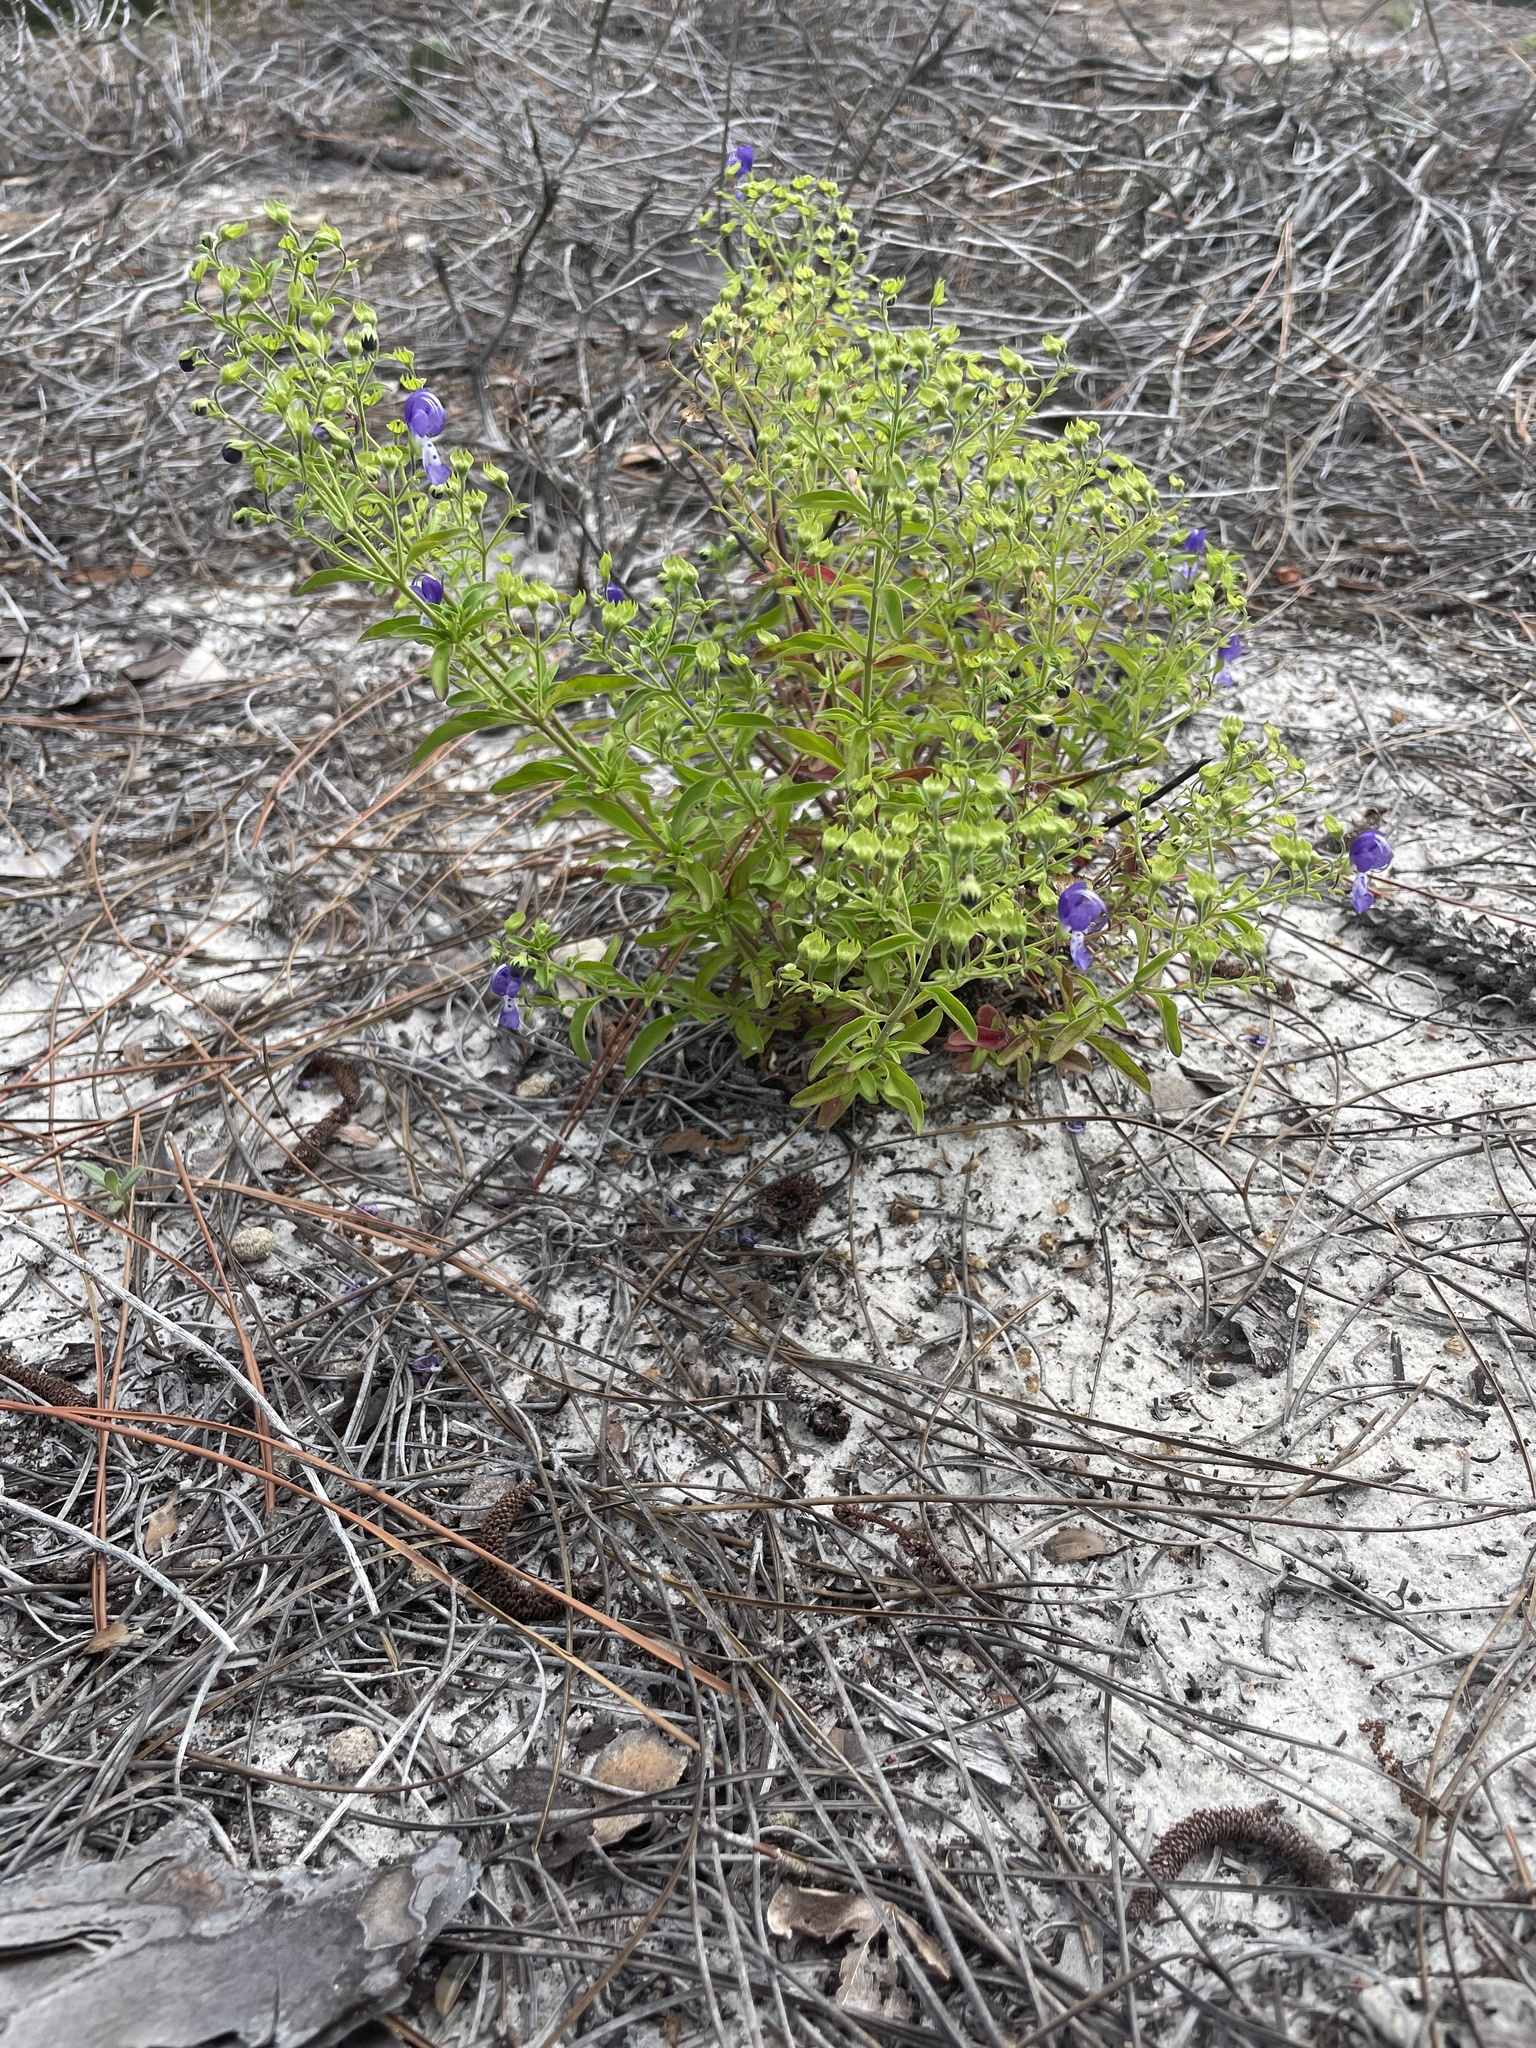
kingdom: Plantae
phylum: Tracheophyta
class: Magnoliopsida
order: Lamiales
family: Lamiaceae
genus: Trichostema
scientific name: Trichostema fruticosum
